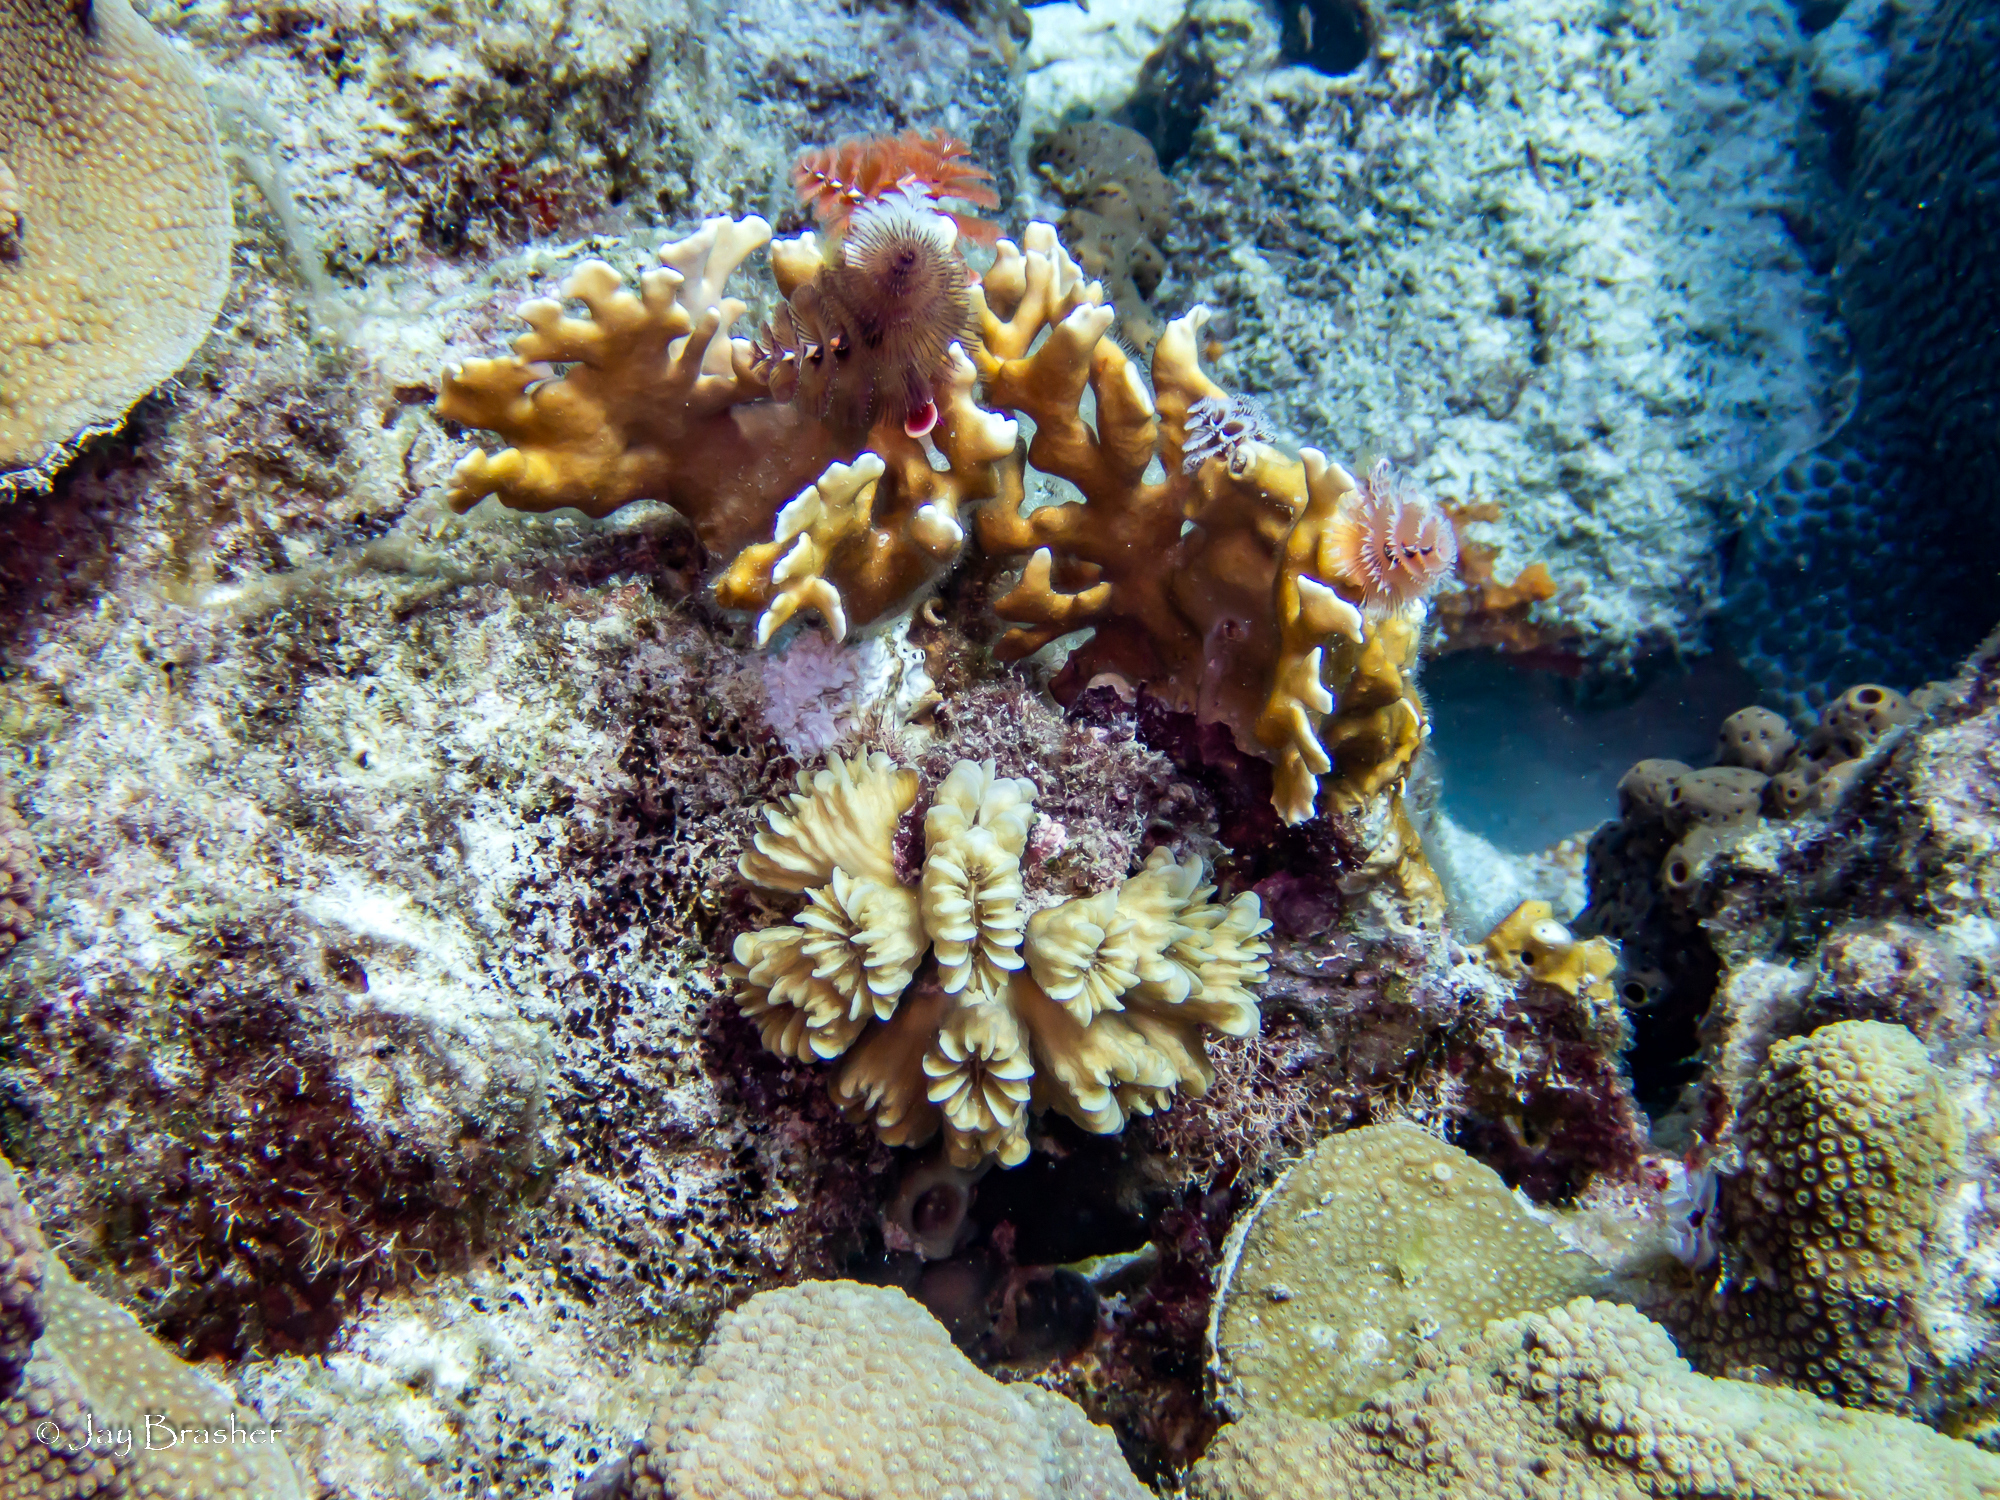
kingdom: Animalia
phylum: Cnidaria
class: Hydrozoa
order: Anthoathecata
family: Milleporidae
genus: Millepora
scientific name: Millepora alcicornis
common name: Branching fire coral
